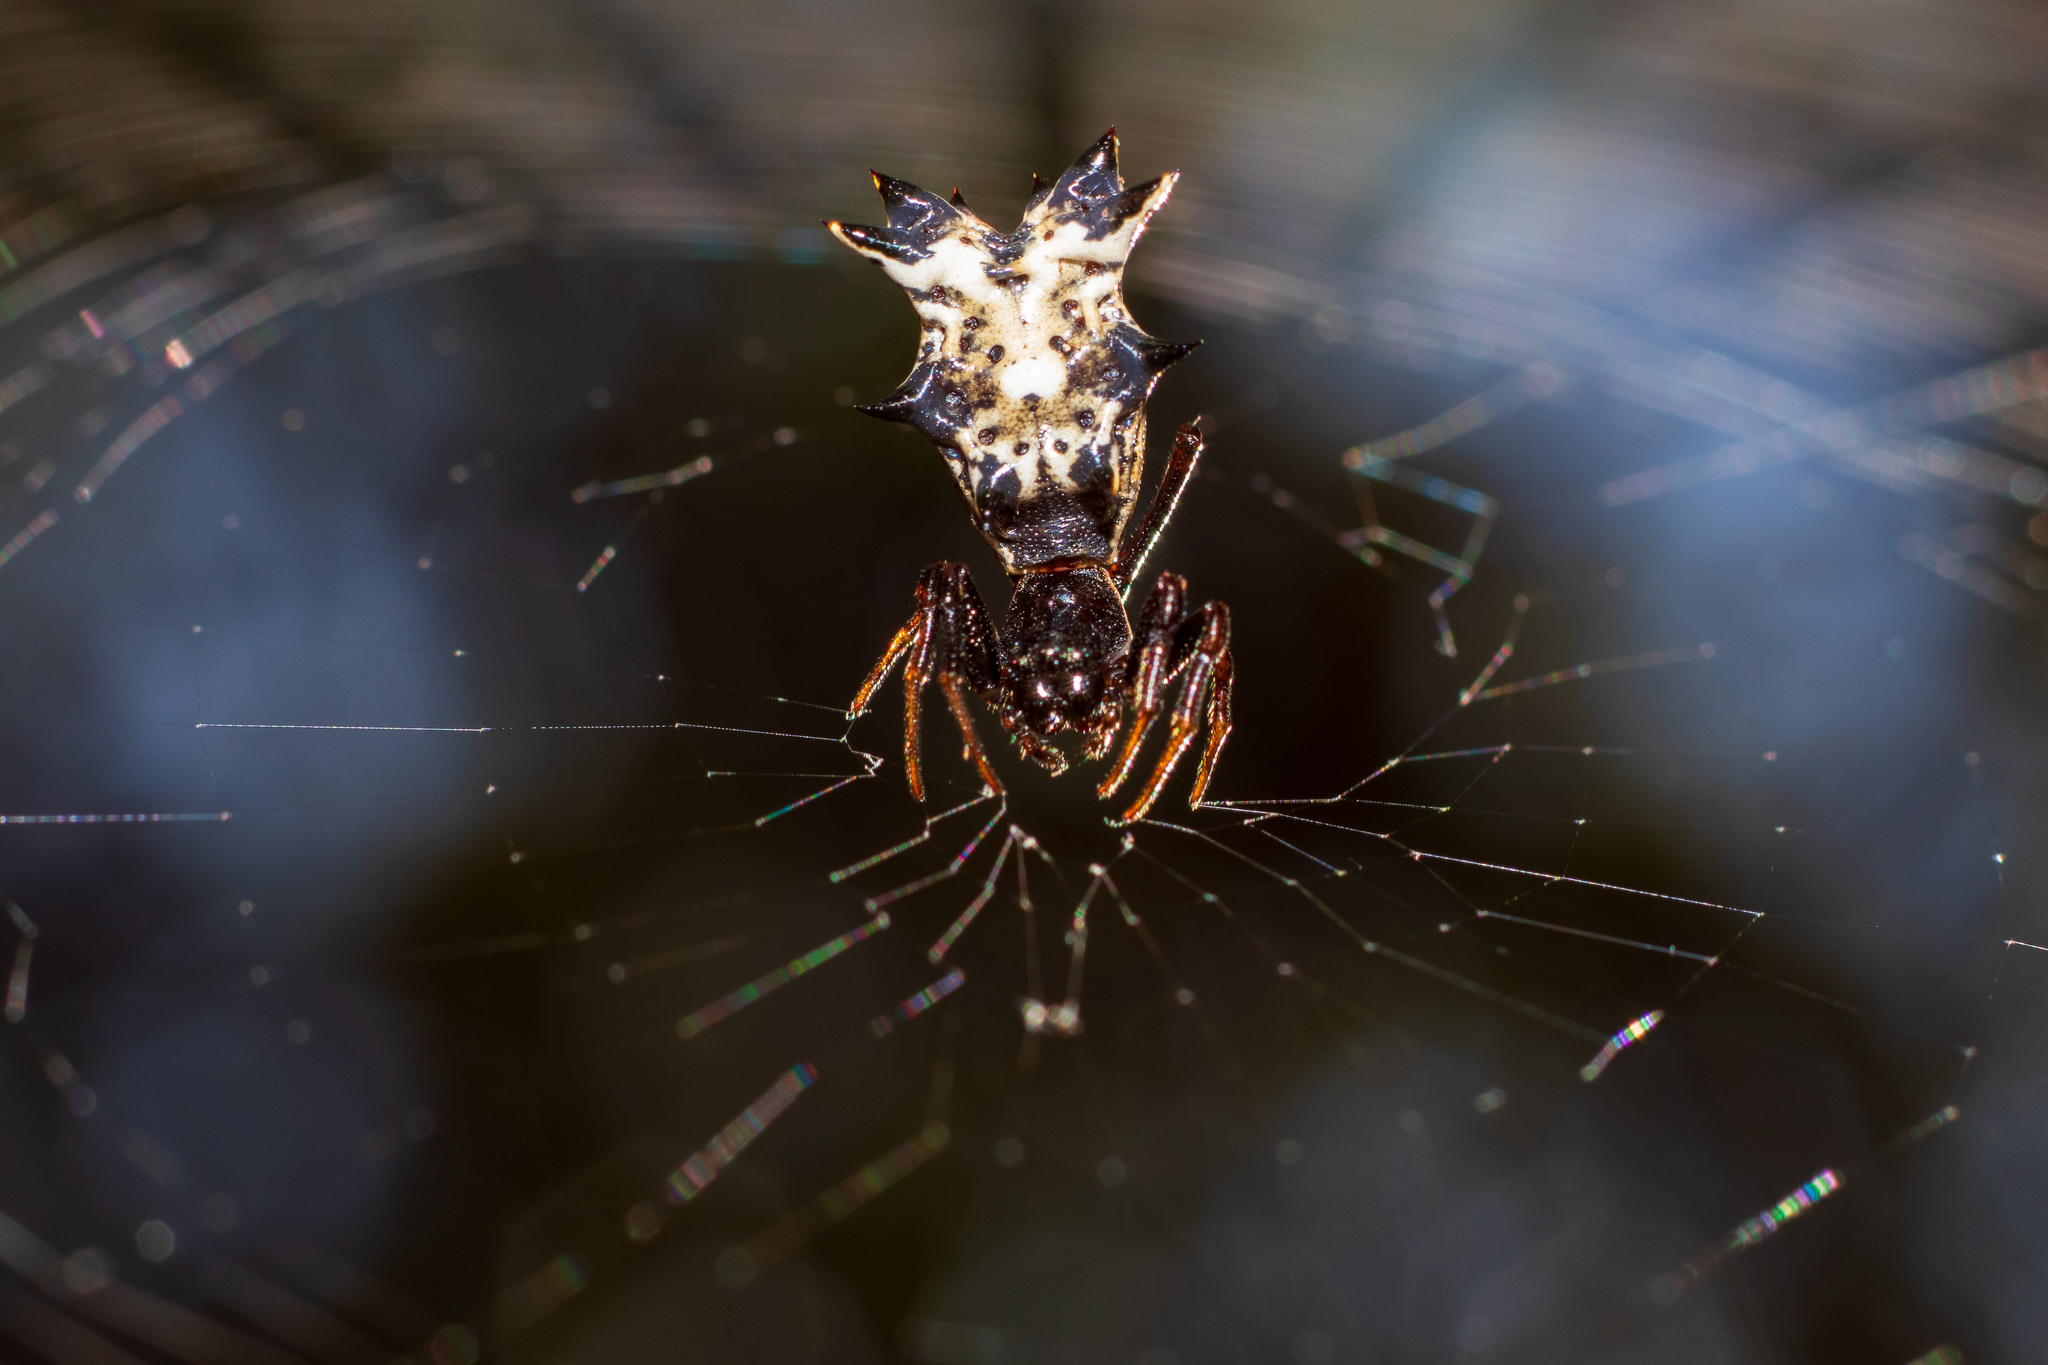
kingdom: Animalia
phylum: Arthropoda
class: Arachnida
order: Araneae
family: Araneidae
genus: Micrathena
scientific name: Micrathena gracilis
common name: Orb weavers
